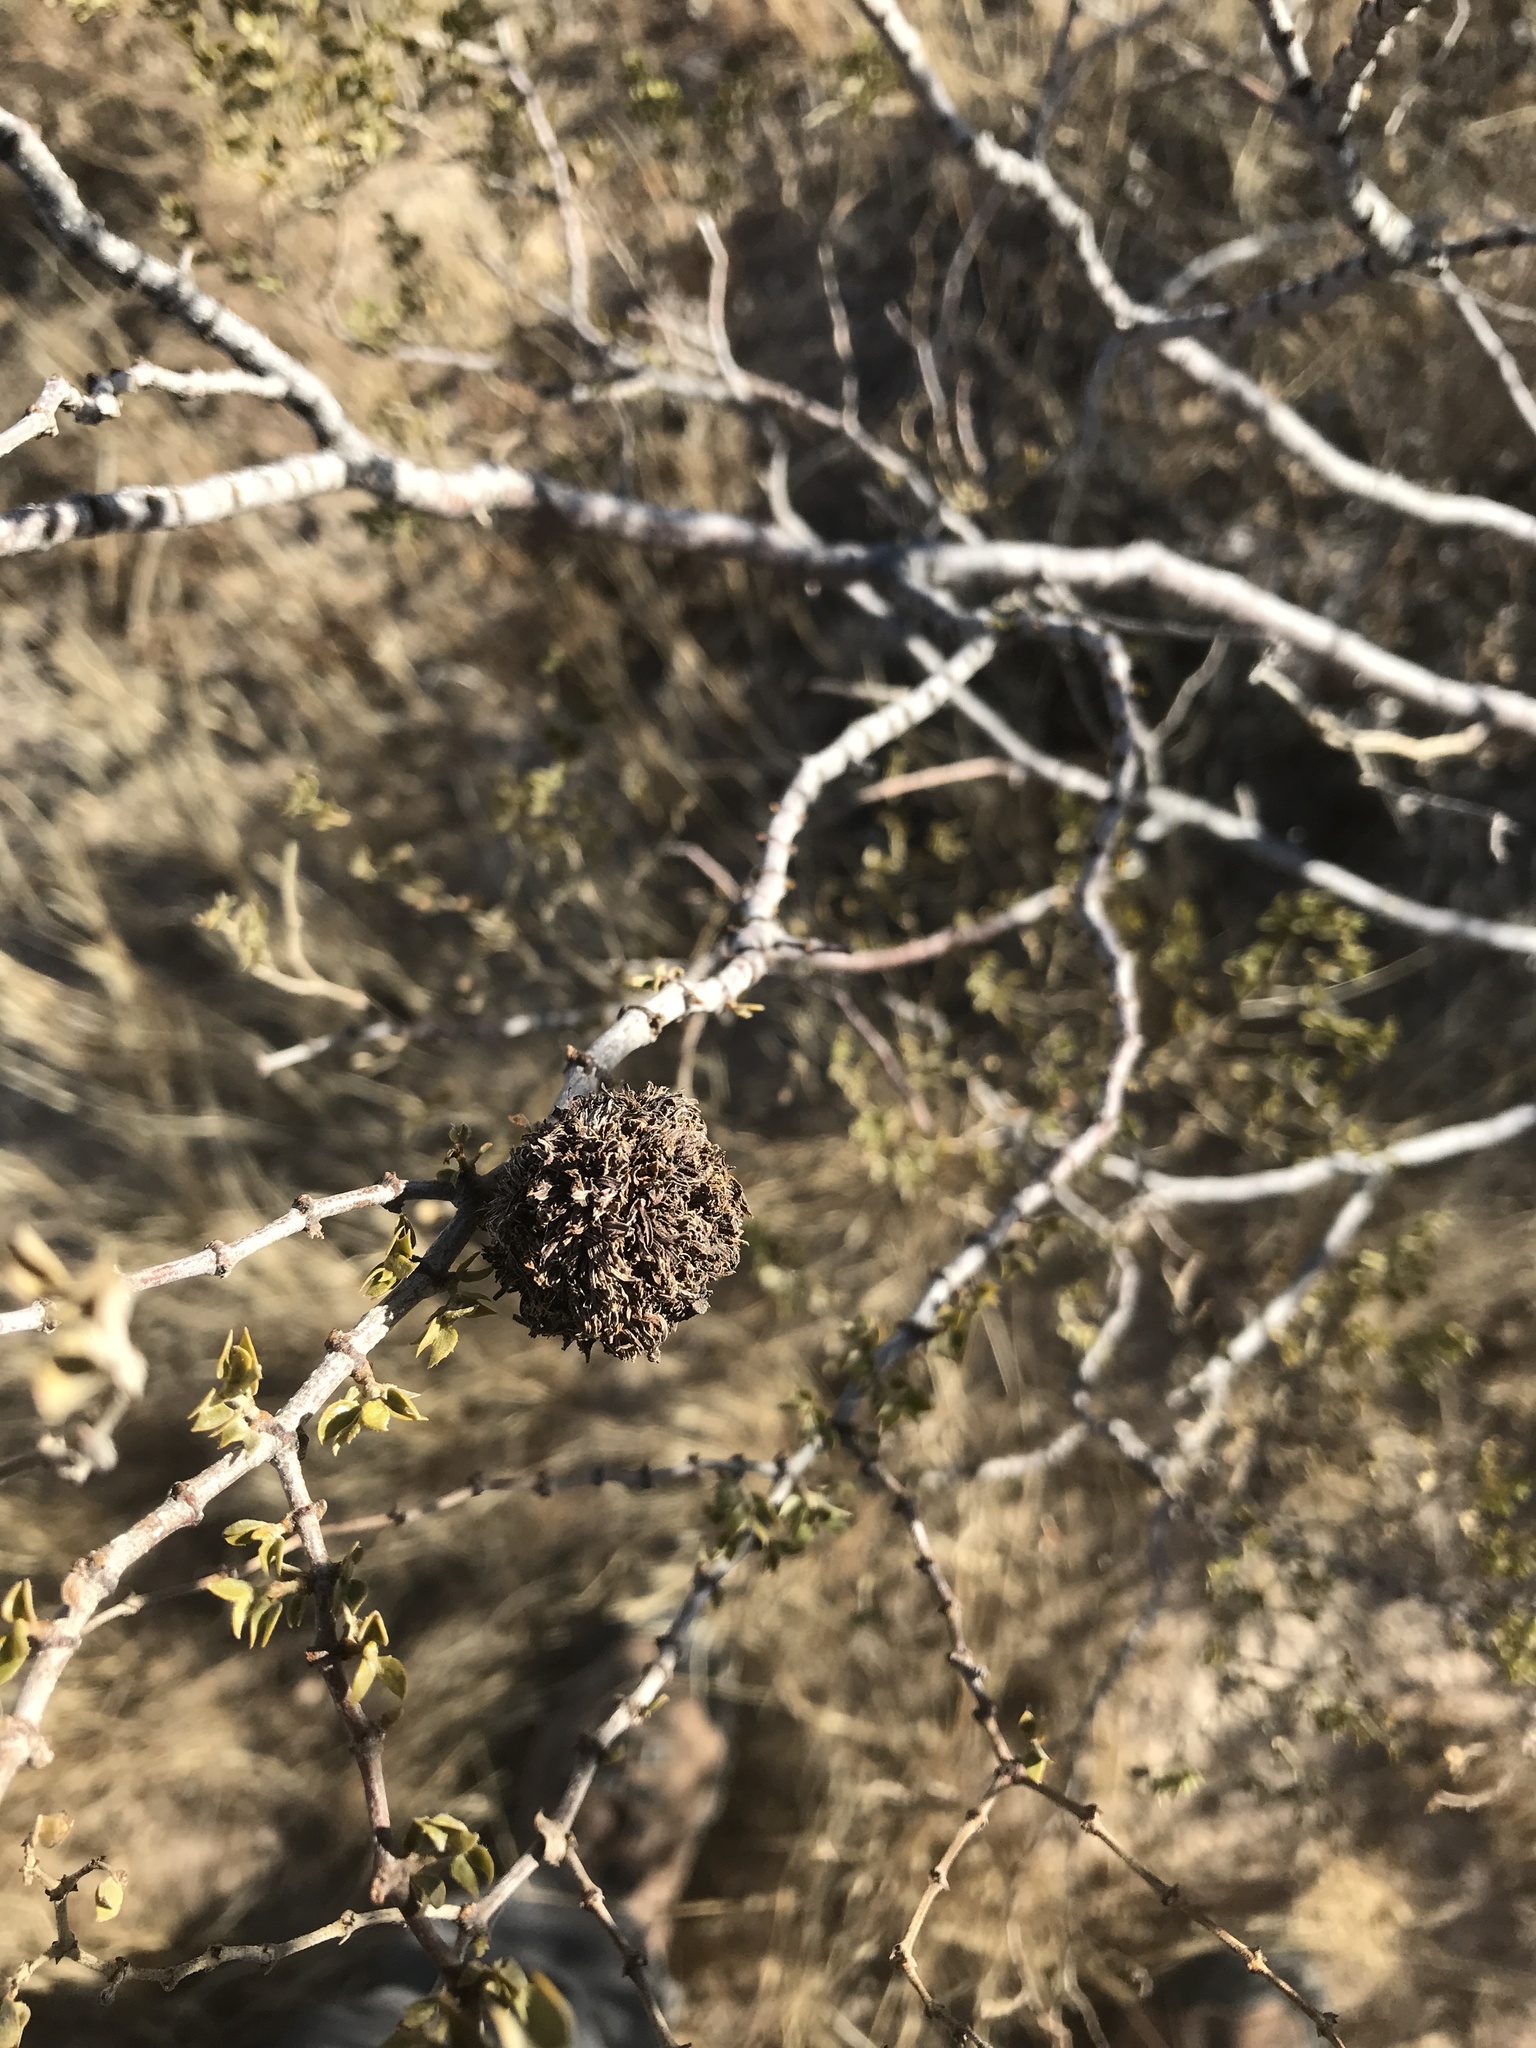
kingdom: Animalia
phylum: Arthropoda
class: Insecta
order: Diptera
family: Cecidomyiidae
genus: Asphondylia
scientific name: Asphondylia auripila
